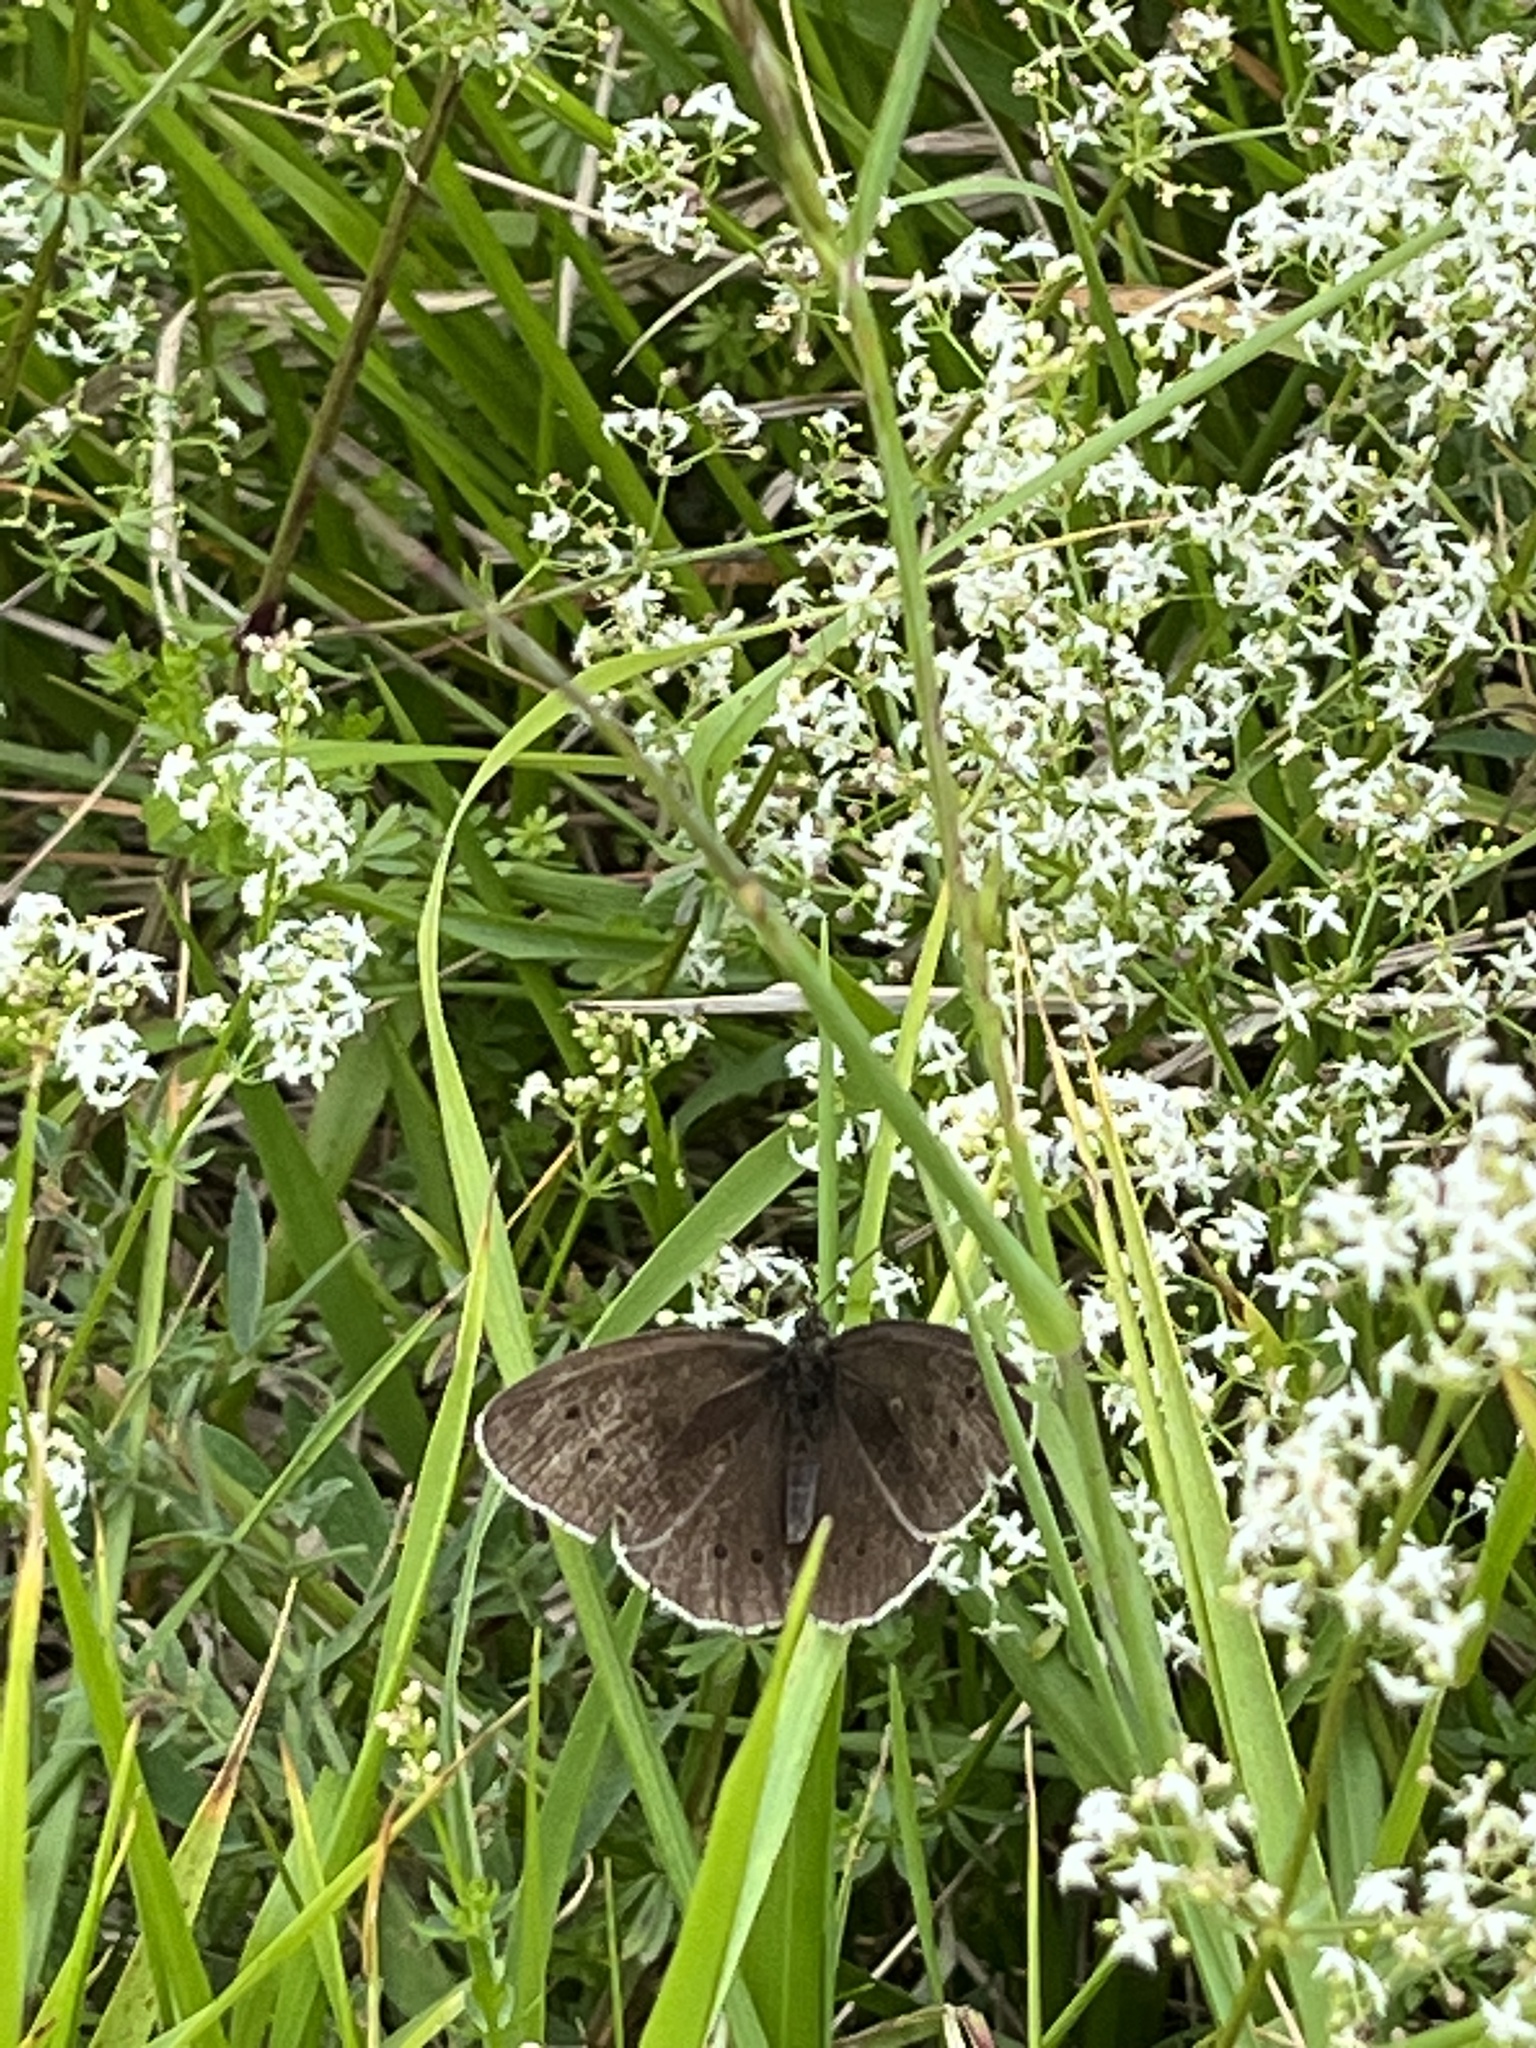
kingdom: Animalia
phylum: Arthropoda
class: Insecta
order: Lepidoptera
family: Nymphalidae
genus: Aphantopus
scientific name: Aphantopus hyperantus
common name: Ringlet
